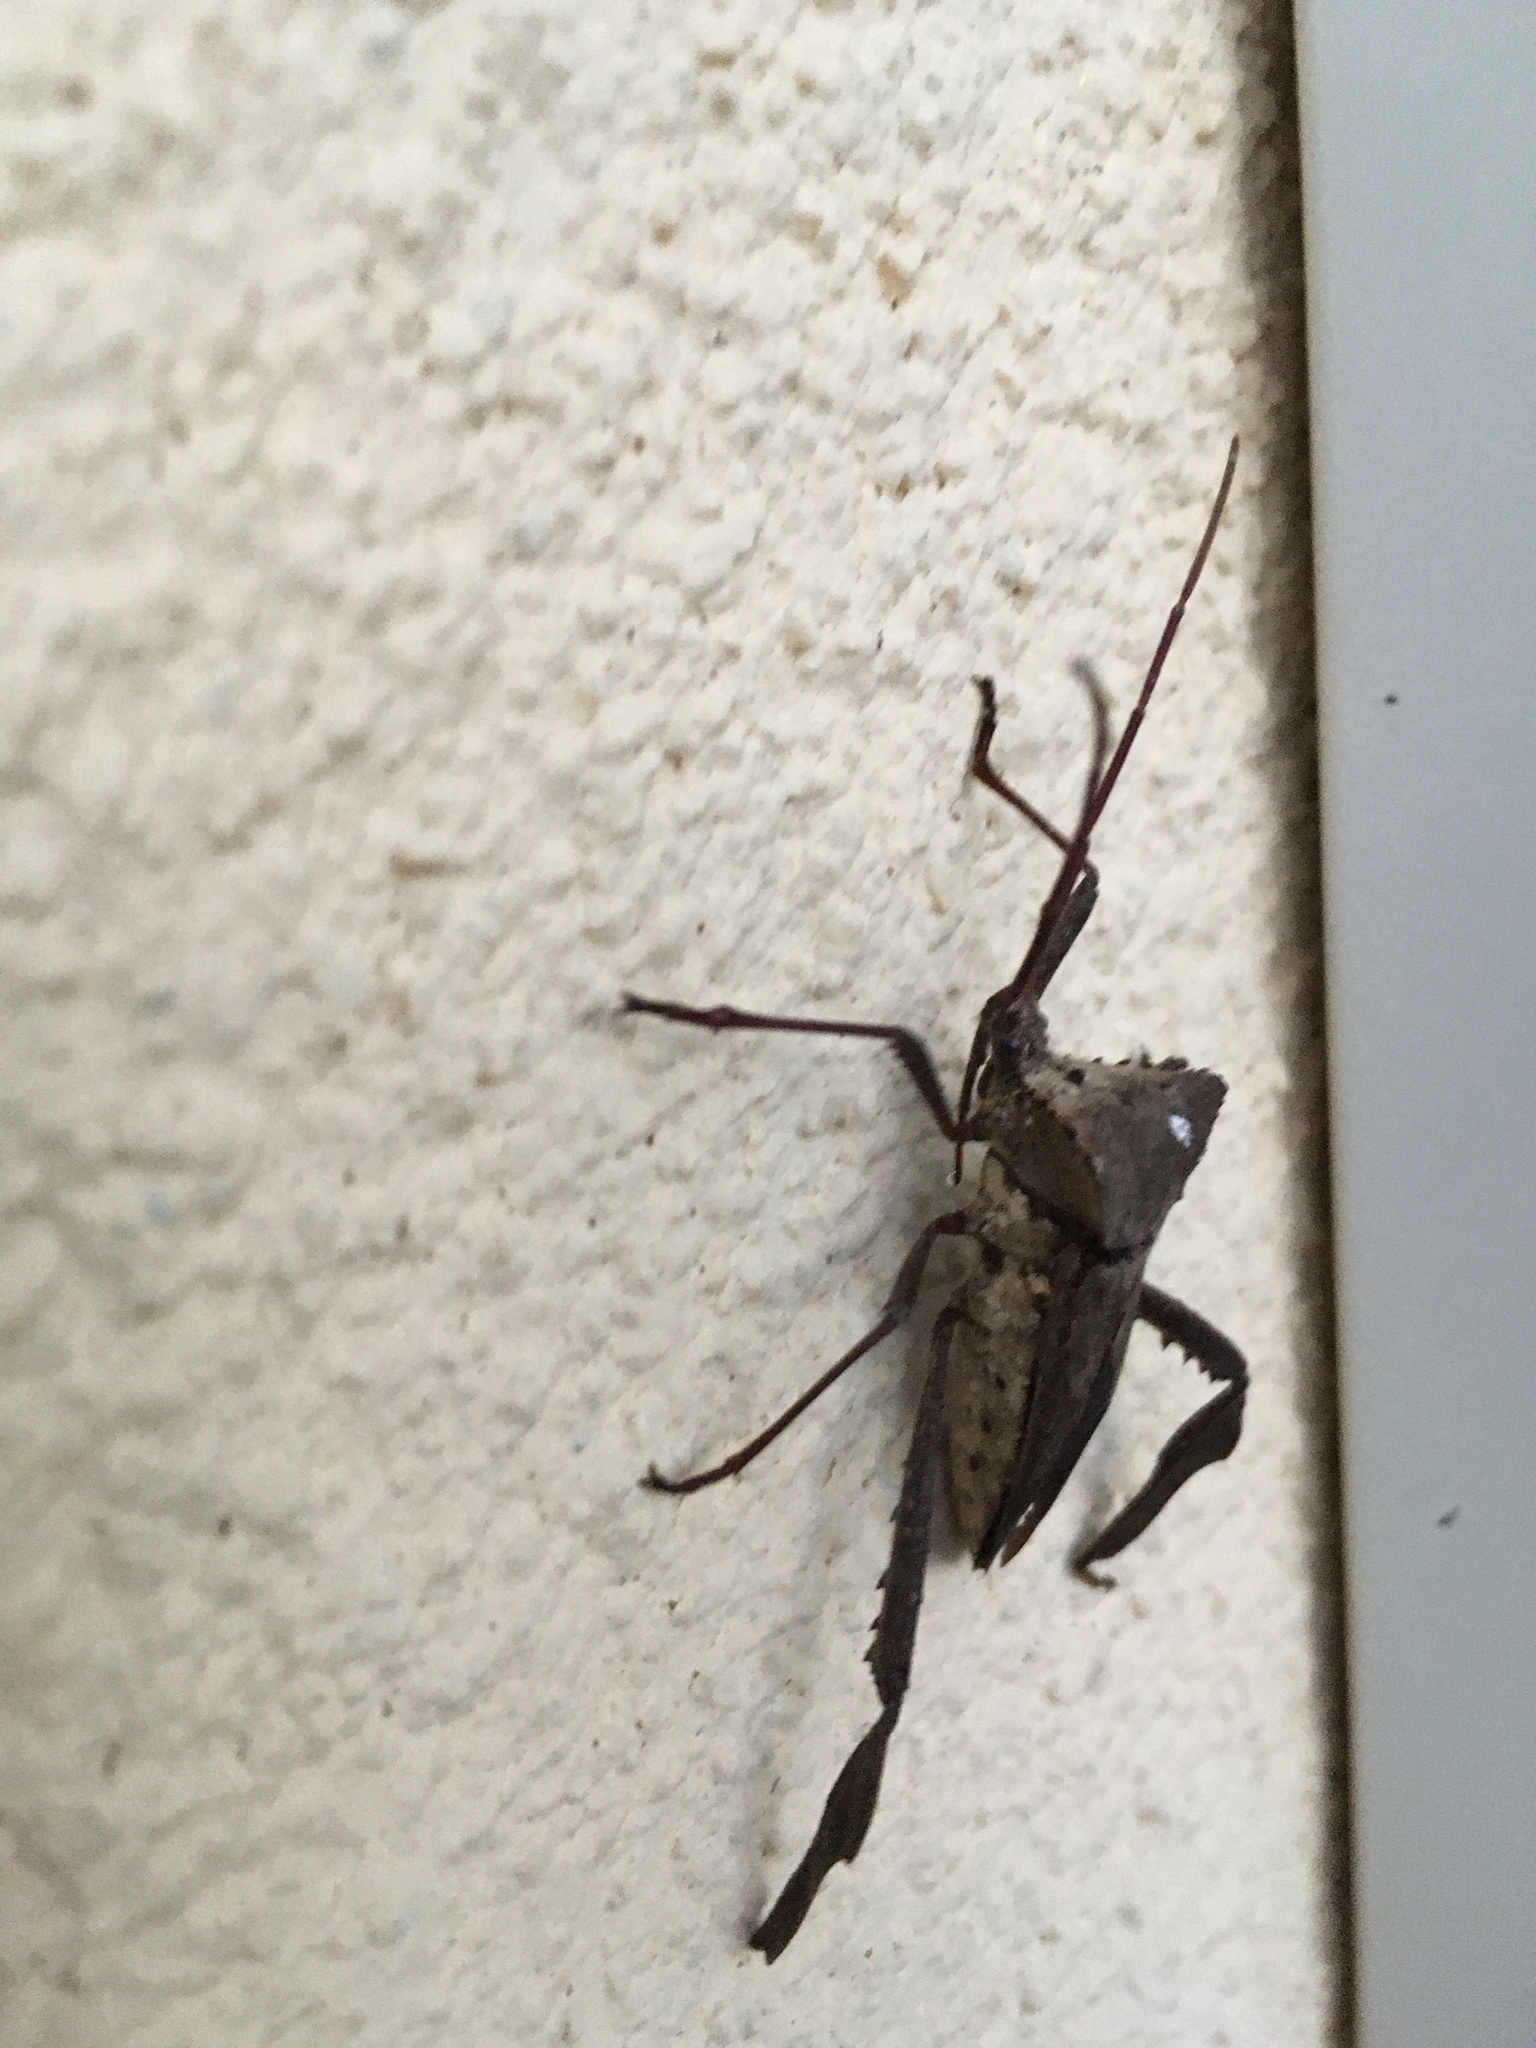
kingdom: Animalia
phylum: Arthropoda
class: Insecta
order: Hemiptera
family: Coreidae
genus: Acanthocephala
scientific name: Acanthocephala declivis
